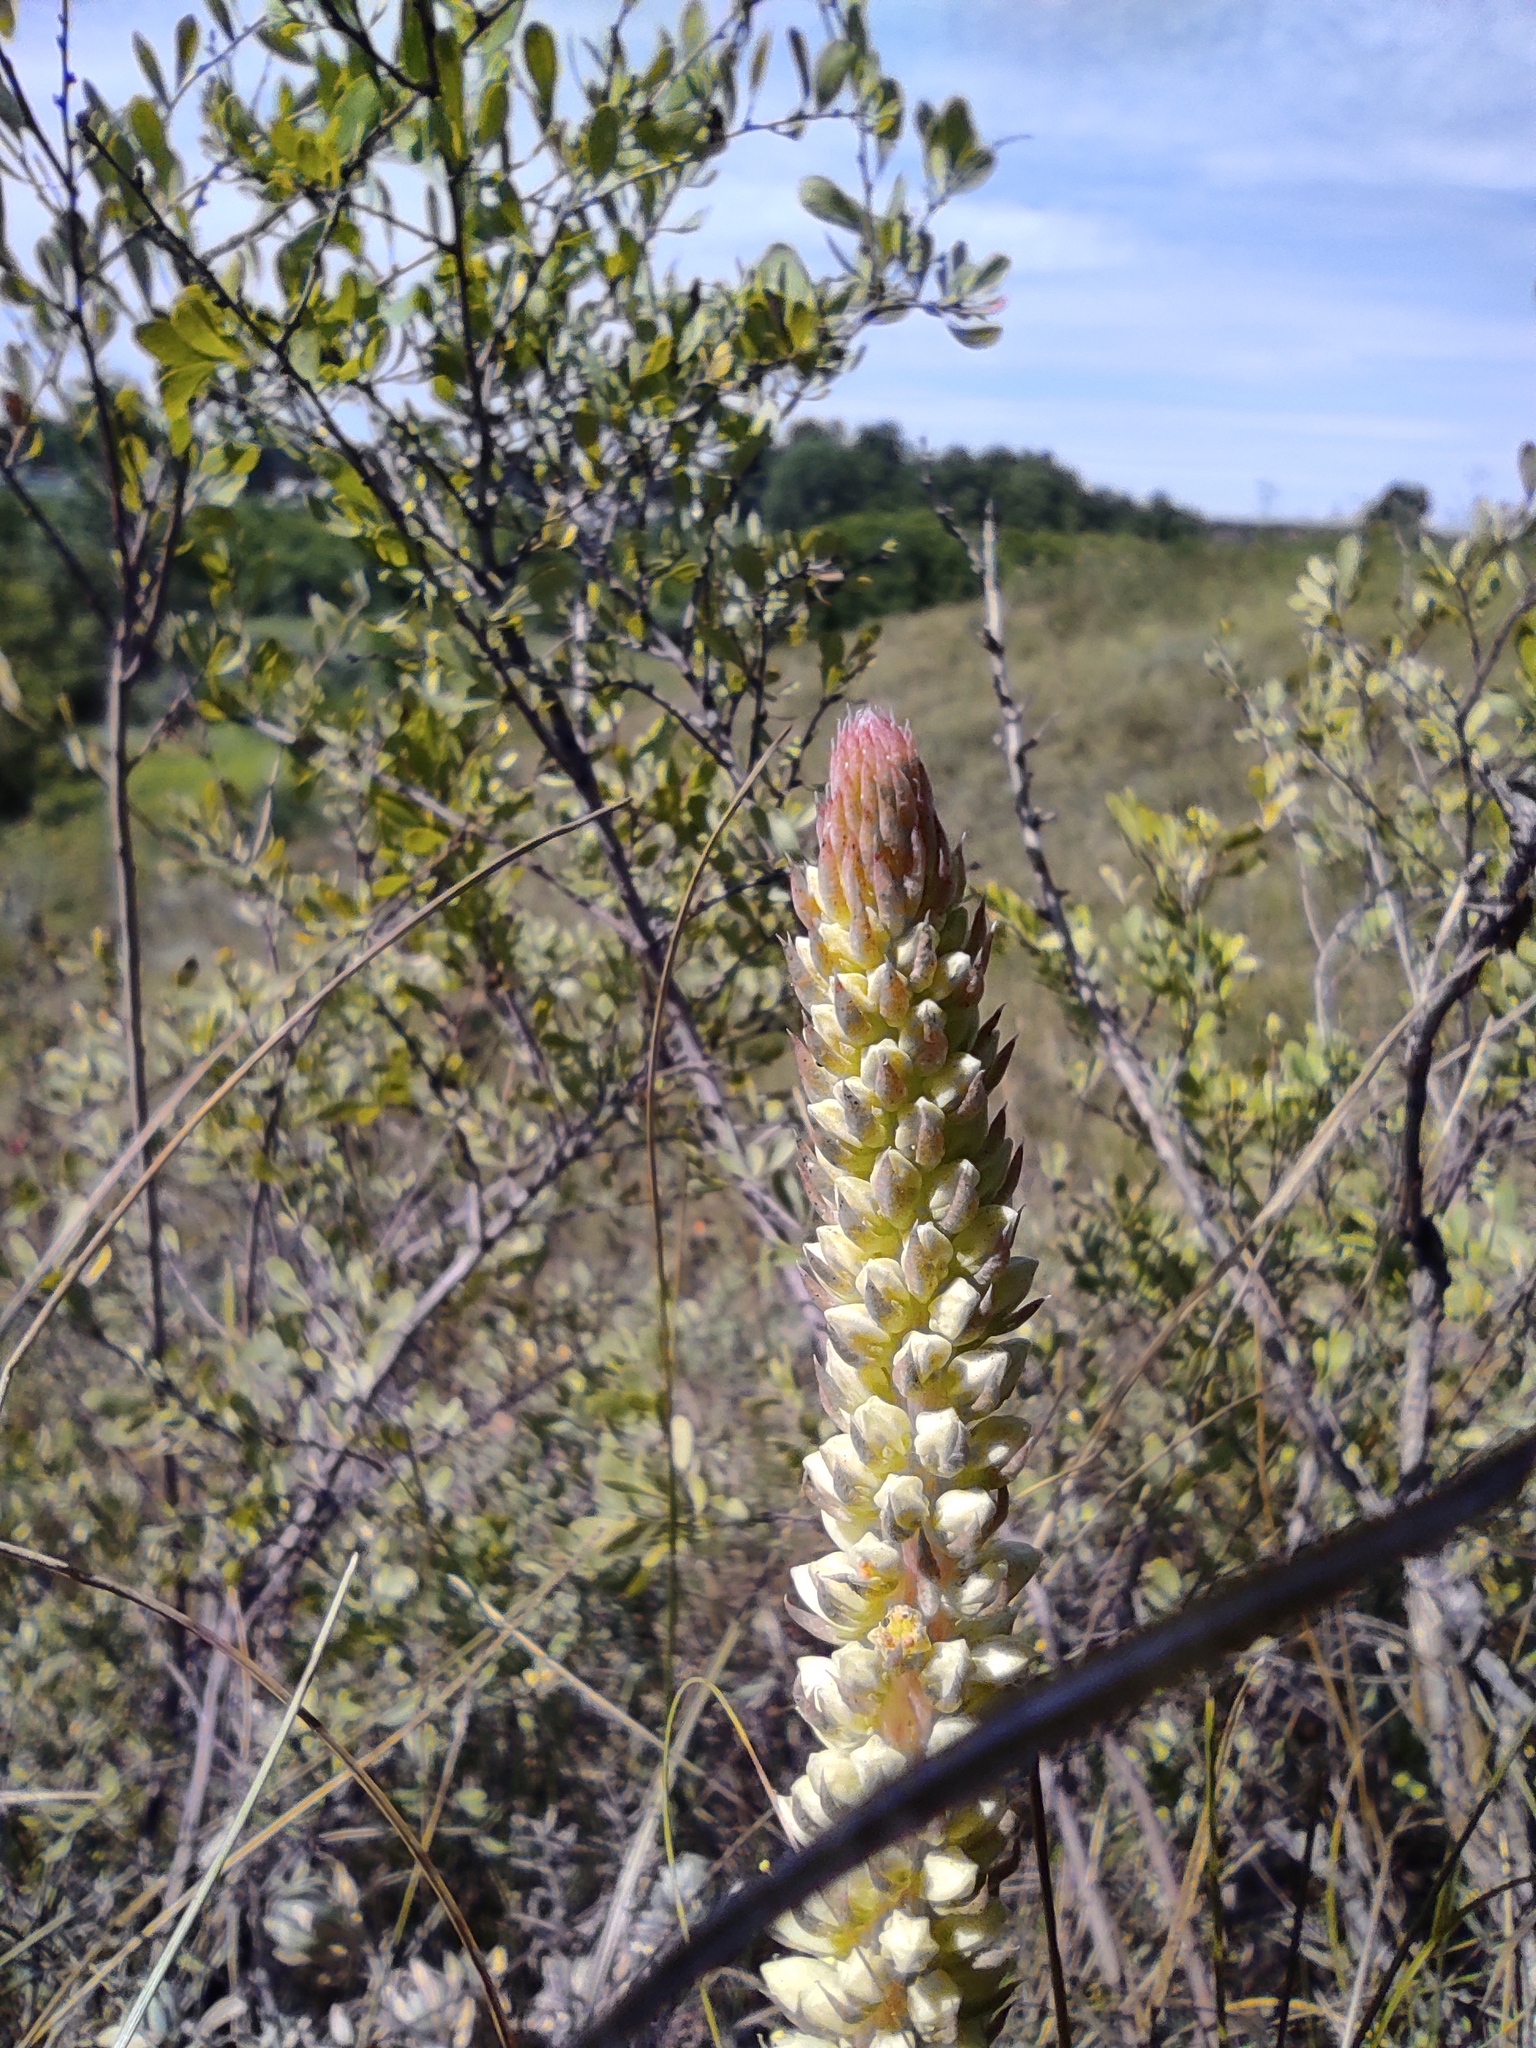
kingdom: Plantae
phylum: Tracheophyta
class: Magnoliopsida
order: Saxifragales
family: Crassulaceae
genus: Orostachys
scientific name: Orostachys spinosa
